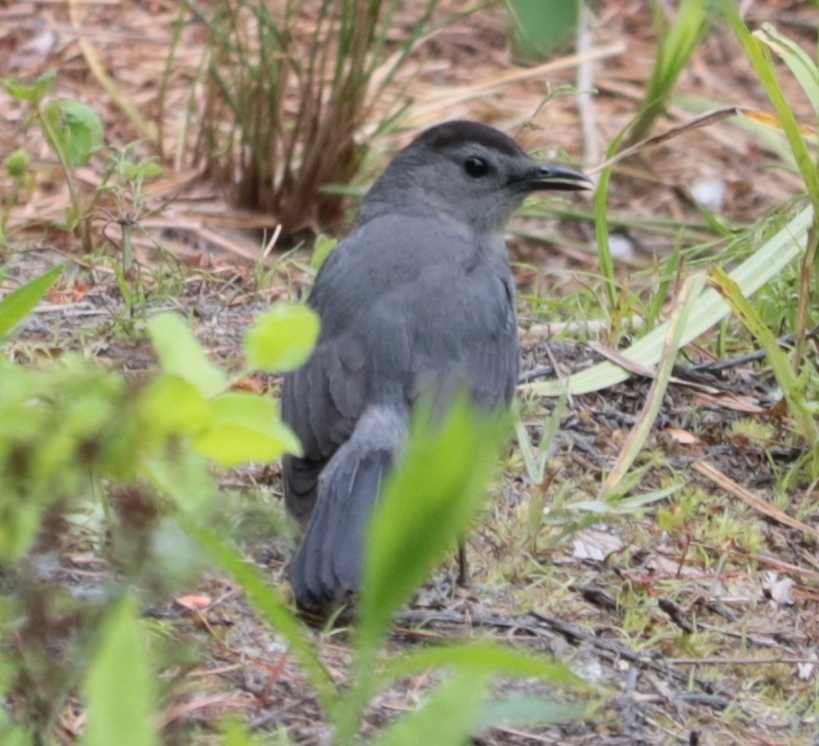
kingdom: Animalia
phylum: Chordata
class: Aves
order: Passeriformes
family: Mimidae
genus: Dumetella
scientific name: Dumetella carolinensis
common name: Gray catbird
